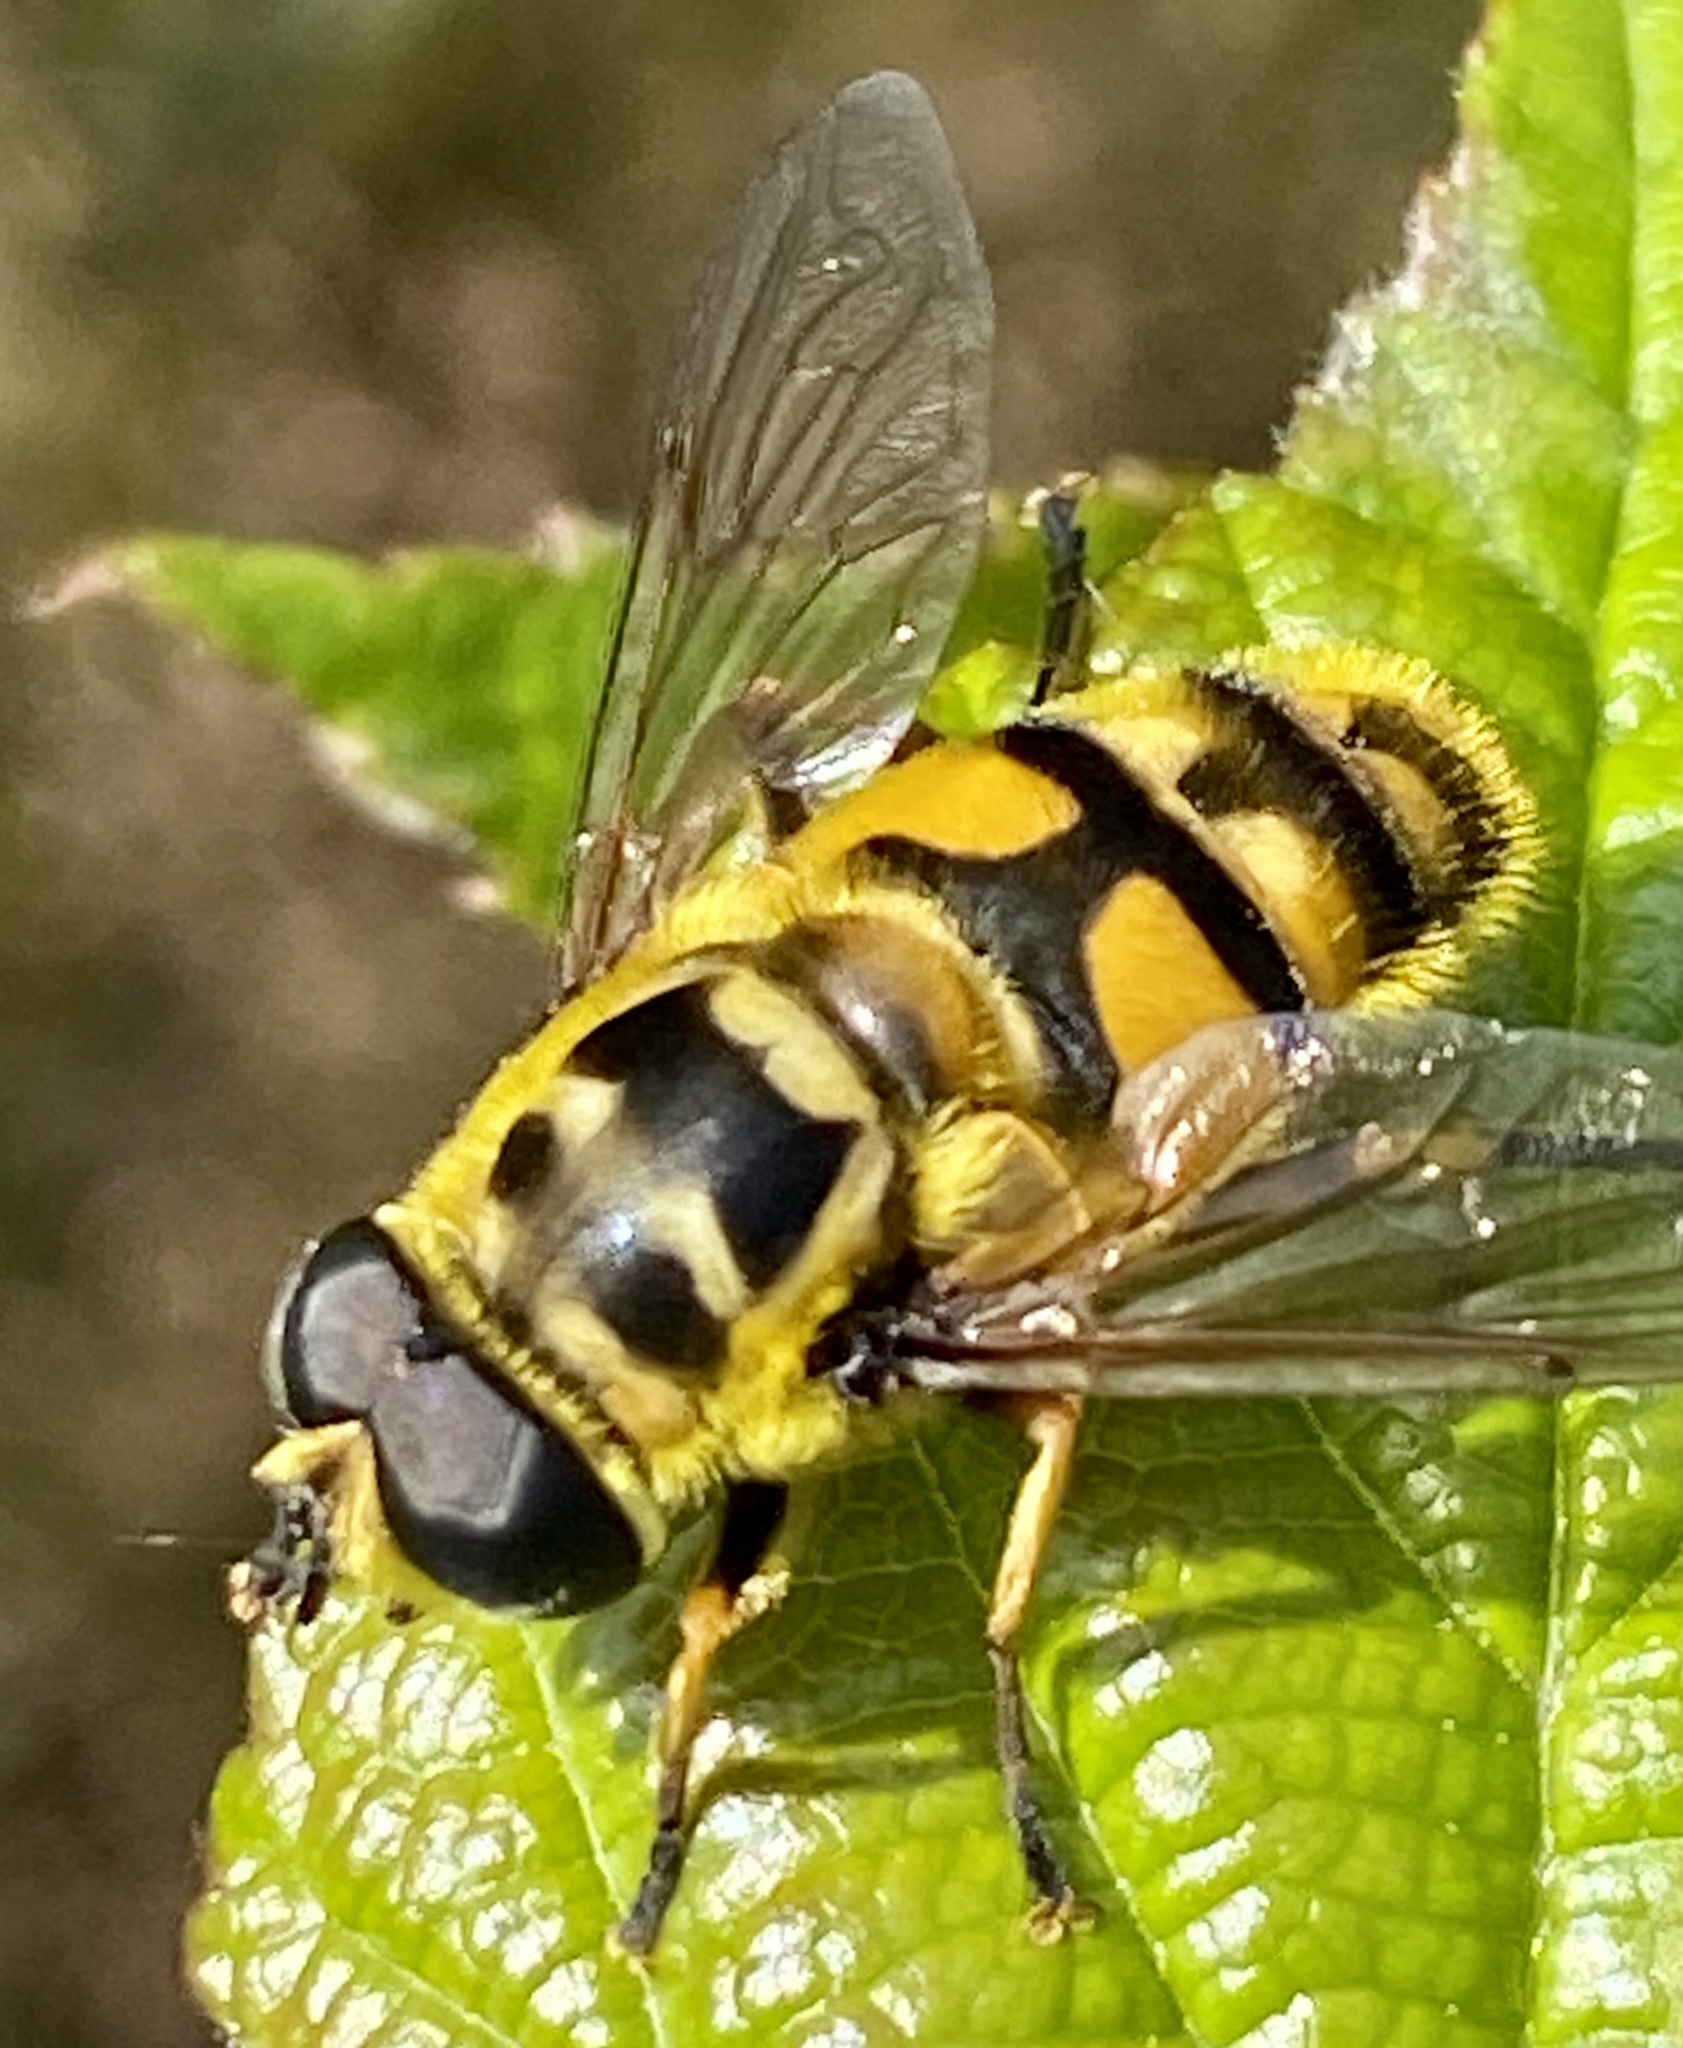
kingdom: Animalia
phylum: Arthropoda
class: Insecta
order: Diptera
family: Syrphidae
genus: Myathropa
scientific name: Myathropa florea
